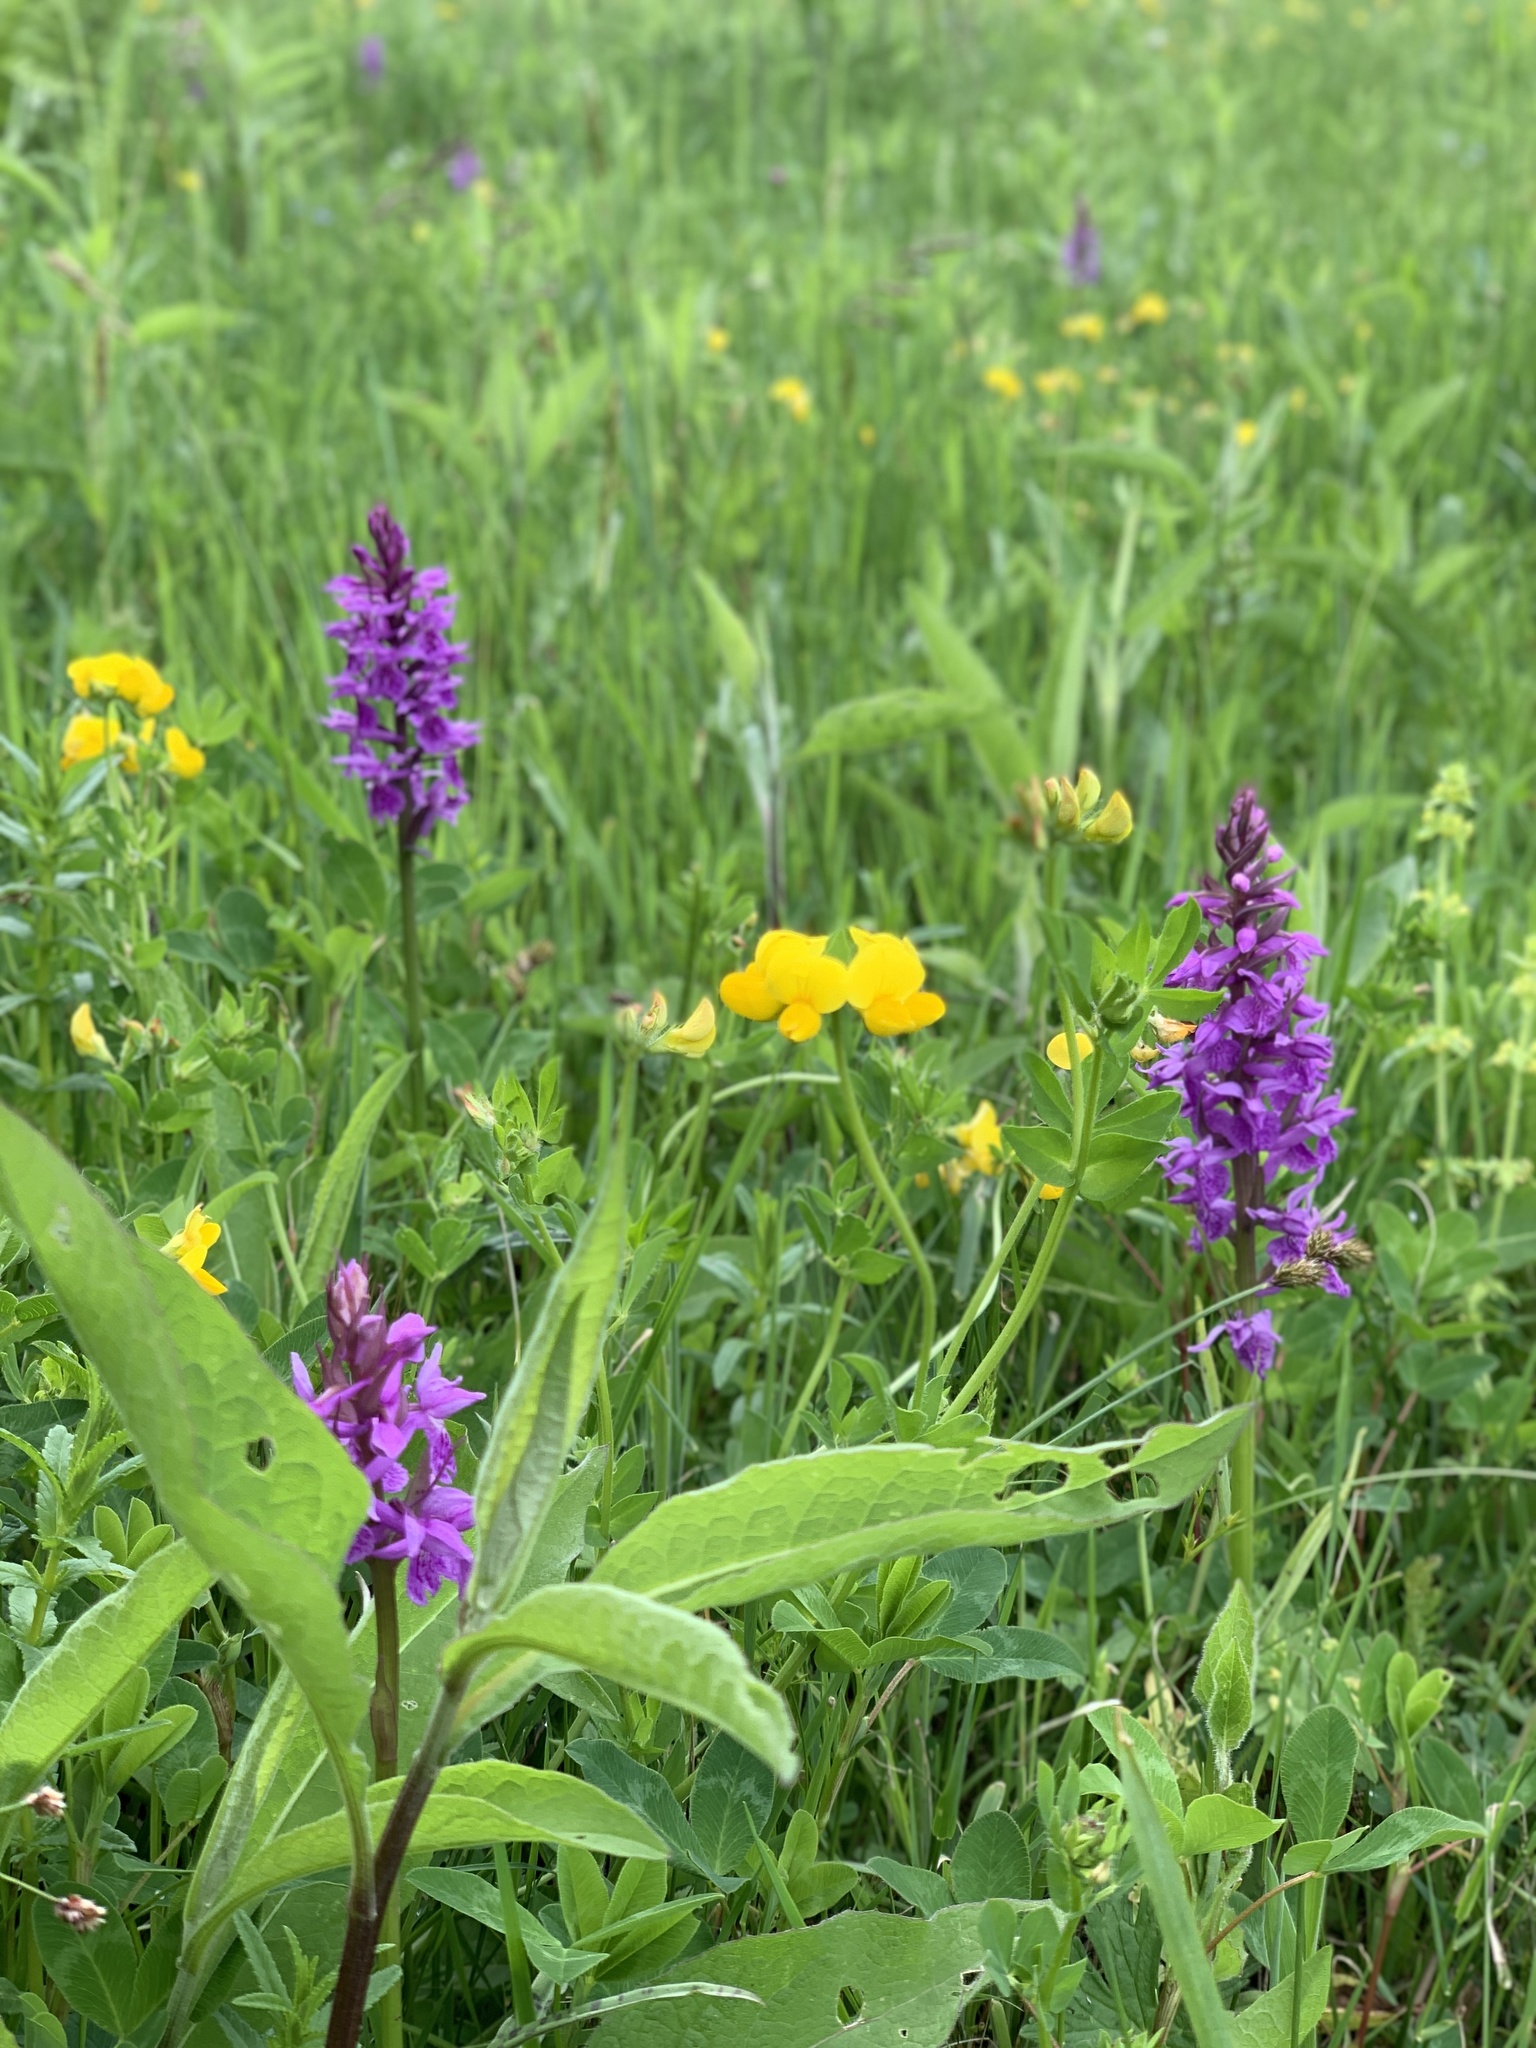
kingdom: Plantae
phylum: Tracheophyta
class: Liliopsida
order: Asparagales
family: Orchidaceae
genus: Orchis
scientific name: Orchis mascula
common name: Early-purple orchid
